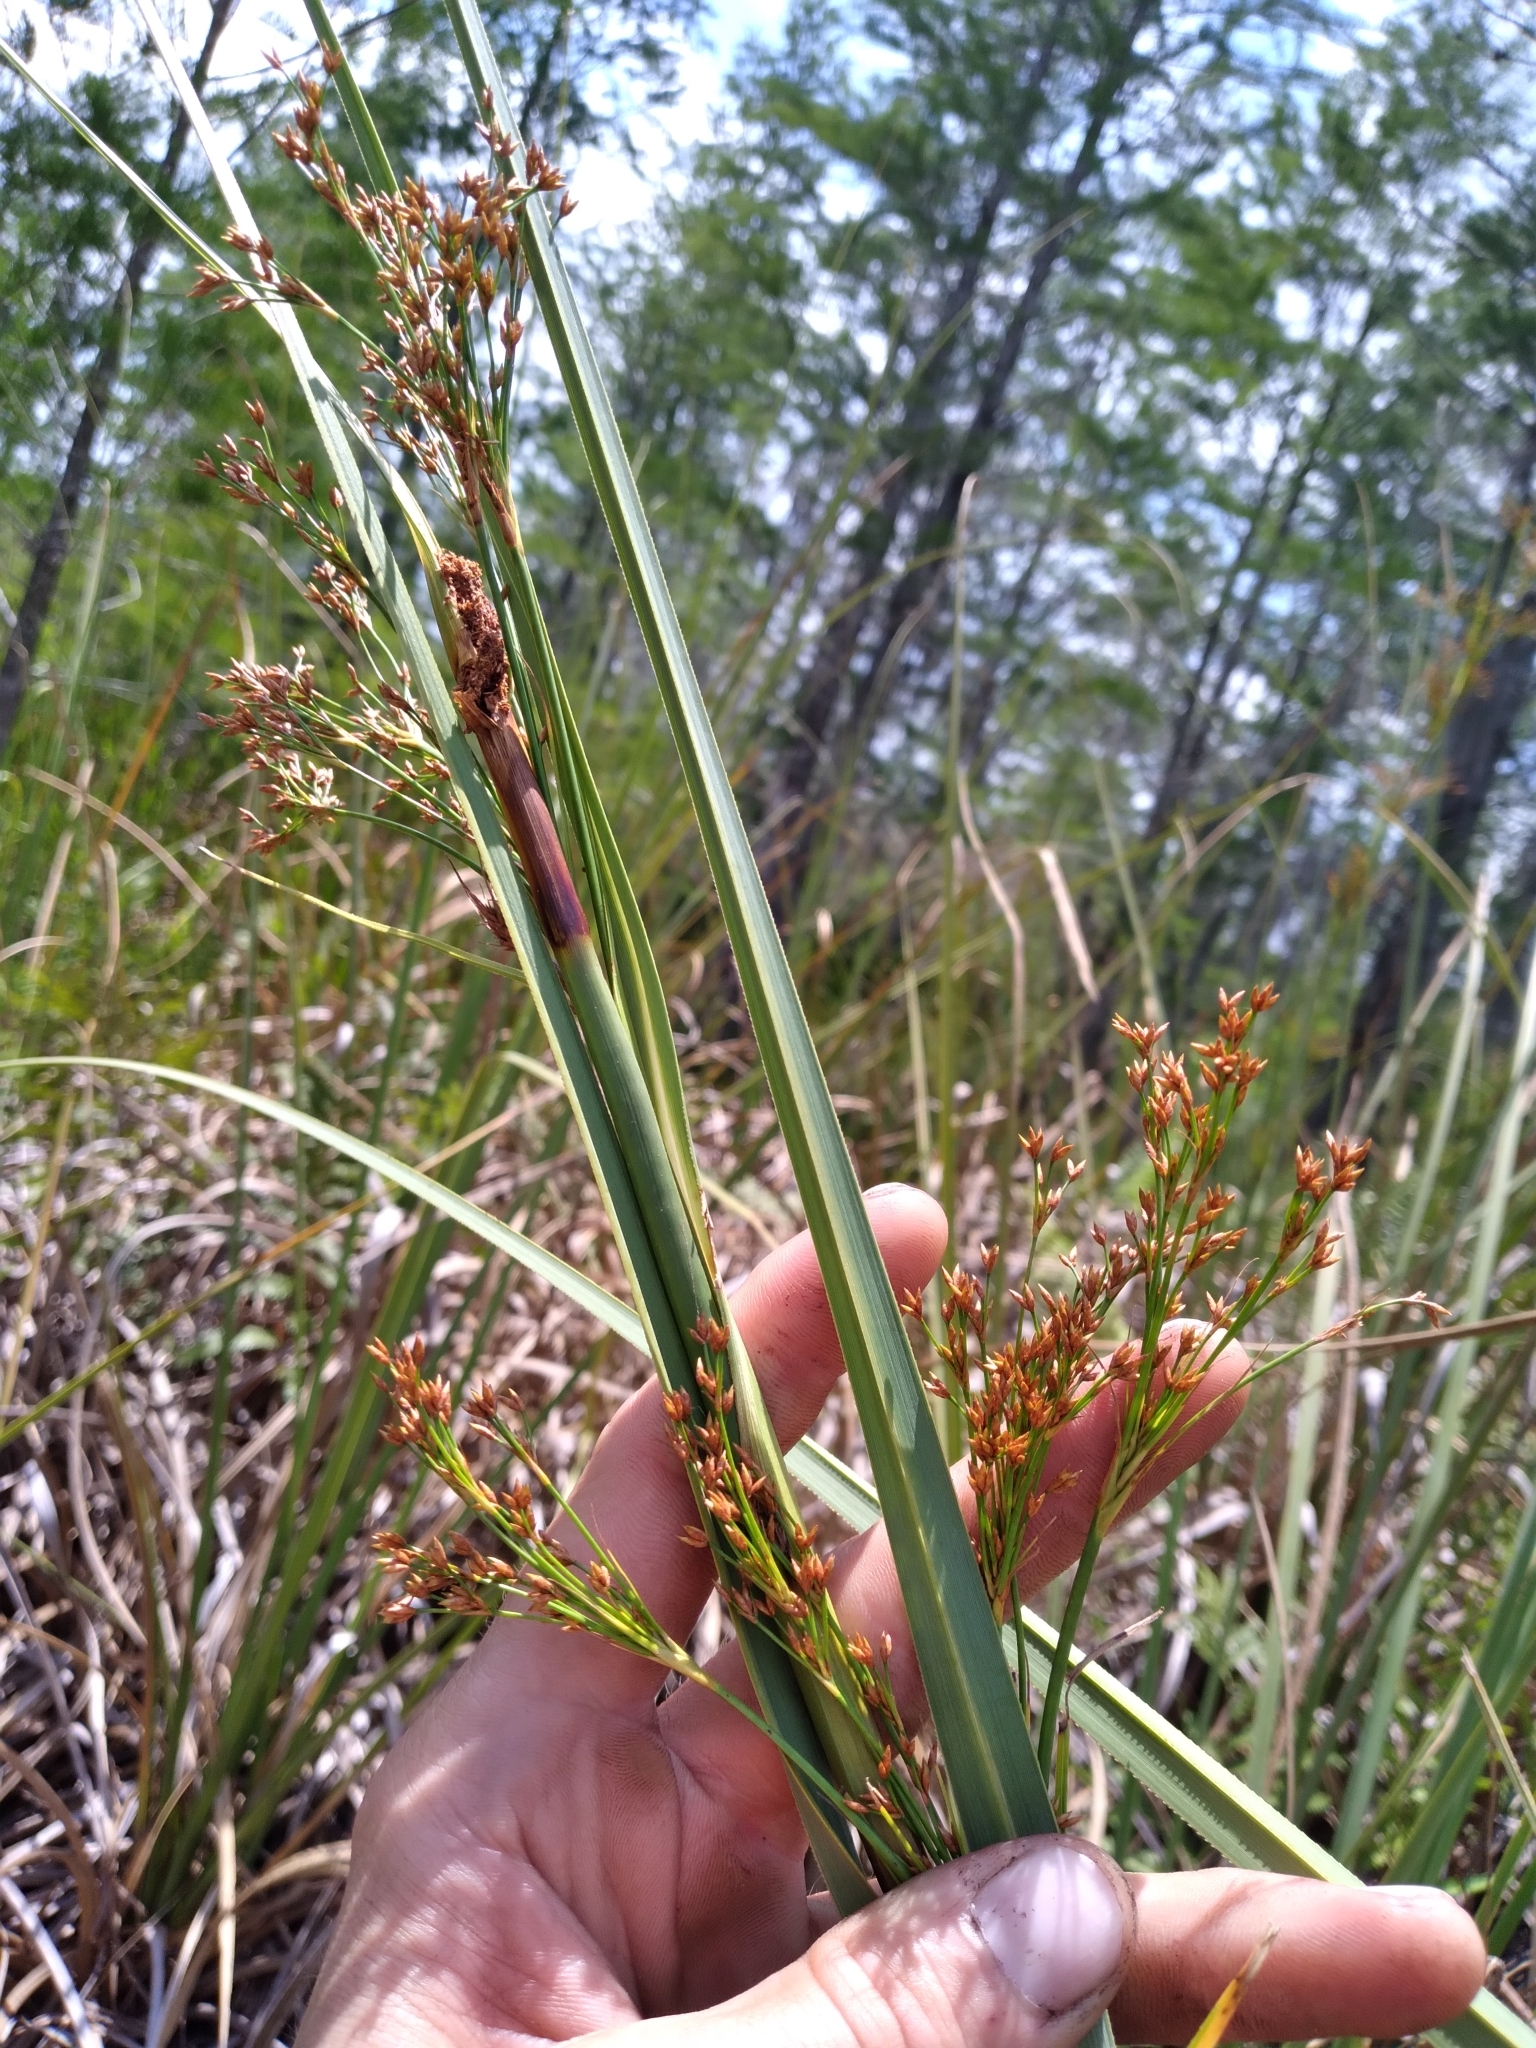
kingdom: Plantae
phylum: Tracheophyta
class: Liliopsida
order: Poales
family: Cyperaceae
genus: Cladium
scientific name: Cladium mariscus
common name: Great fen-sedge
